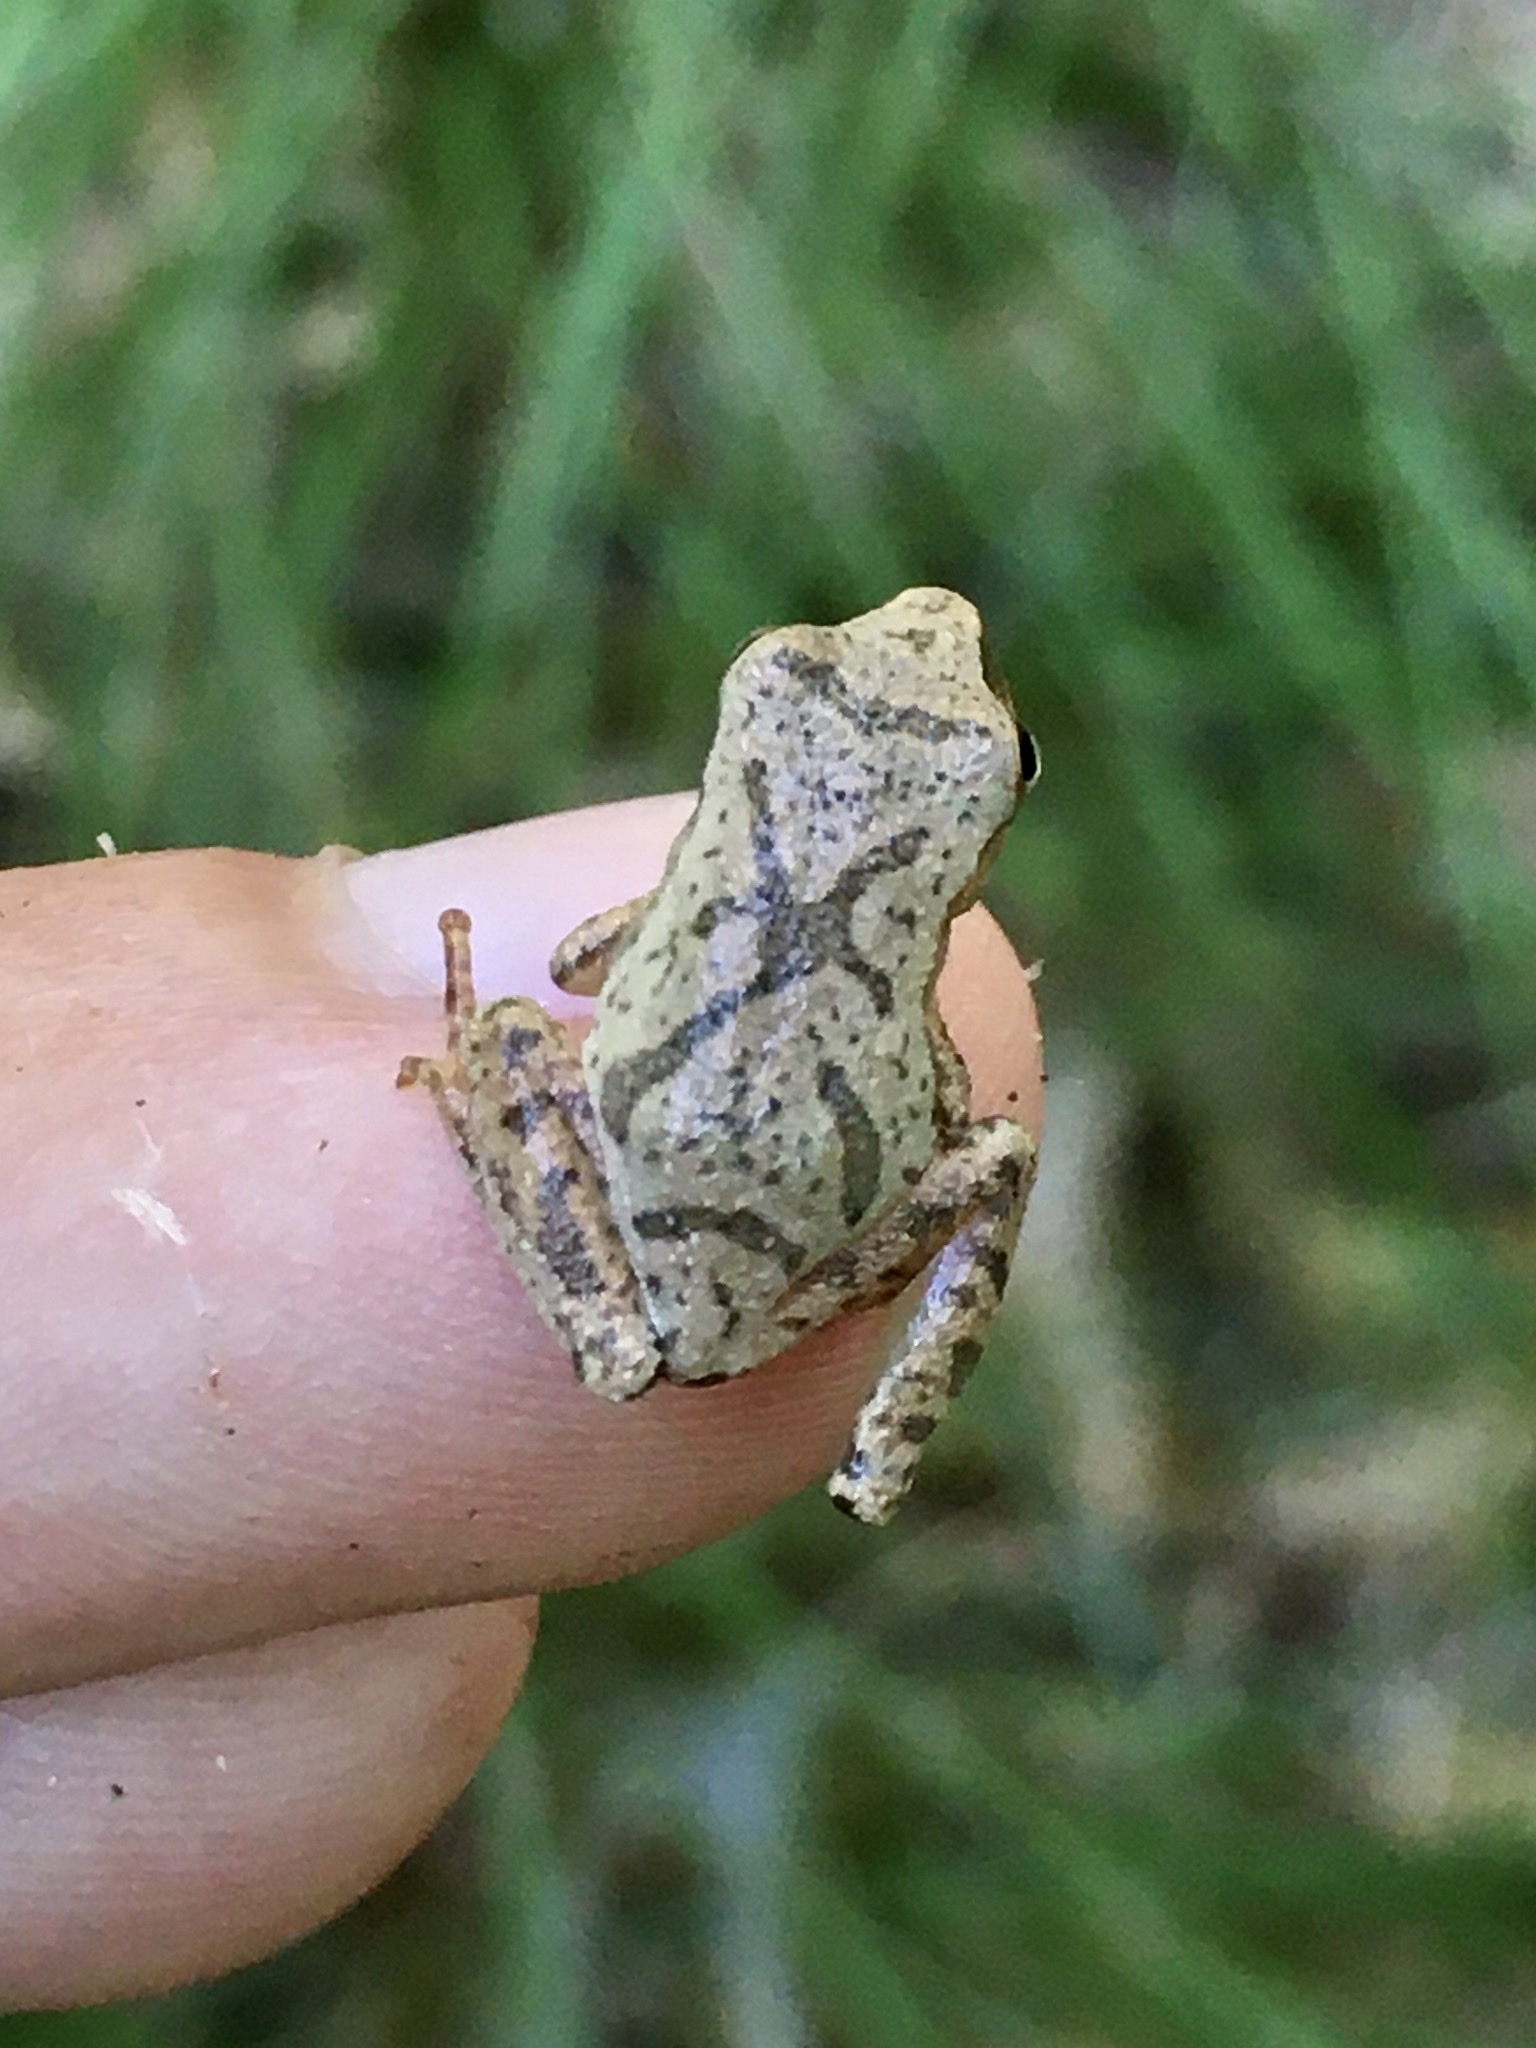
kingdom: Animalia
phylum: Chordata
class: Amphibia
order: Anura
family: Hylidae
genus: Pseudacris
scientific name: Pseudacris crucifer
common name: Spring peeper
